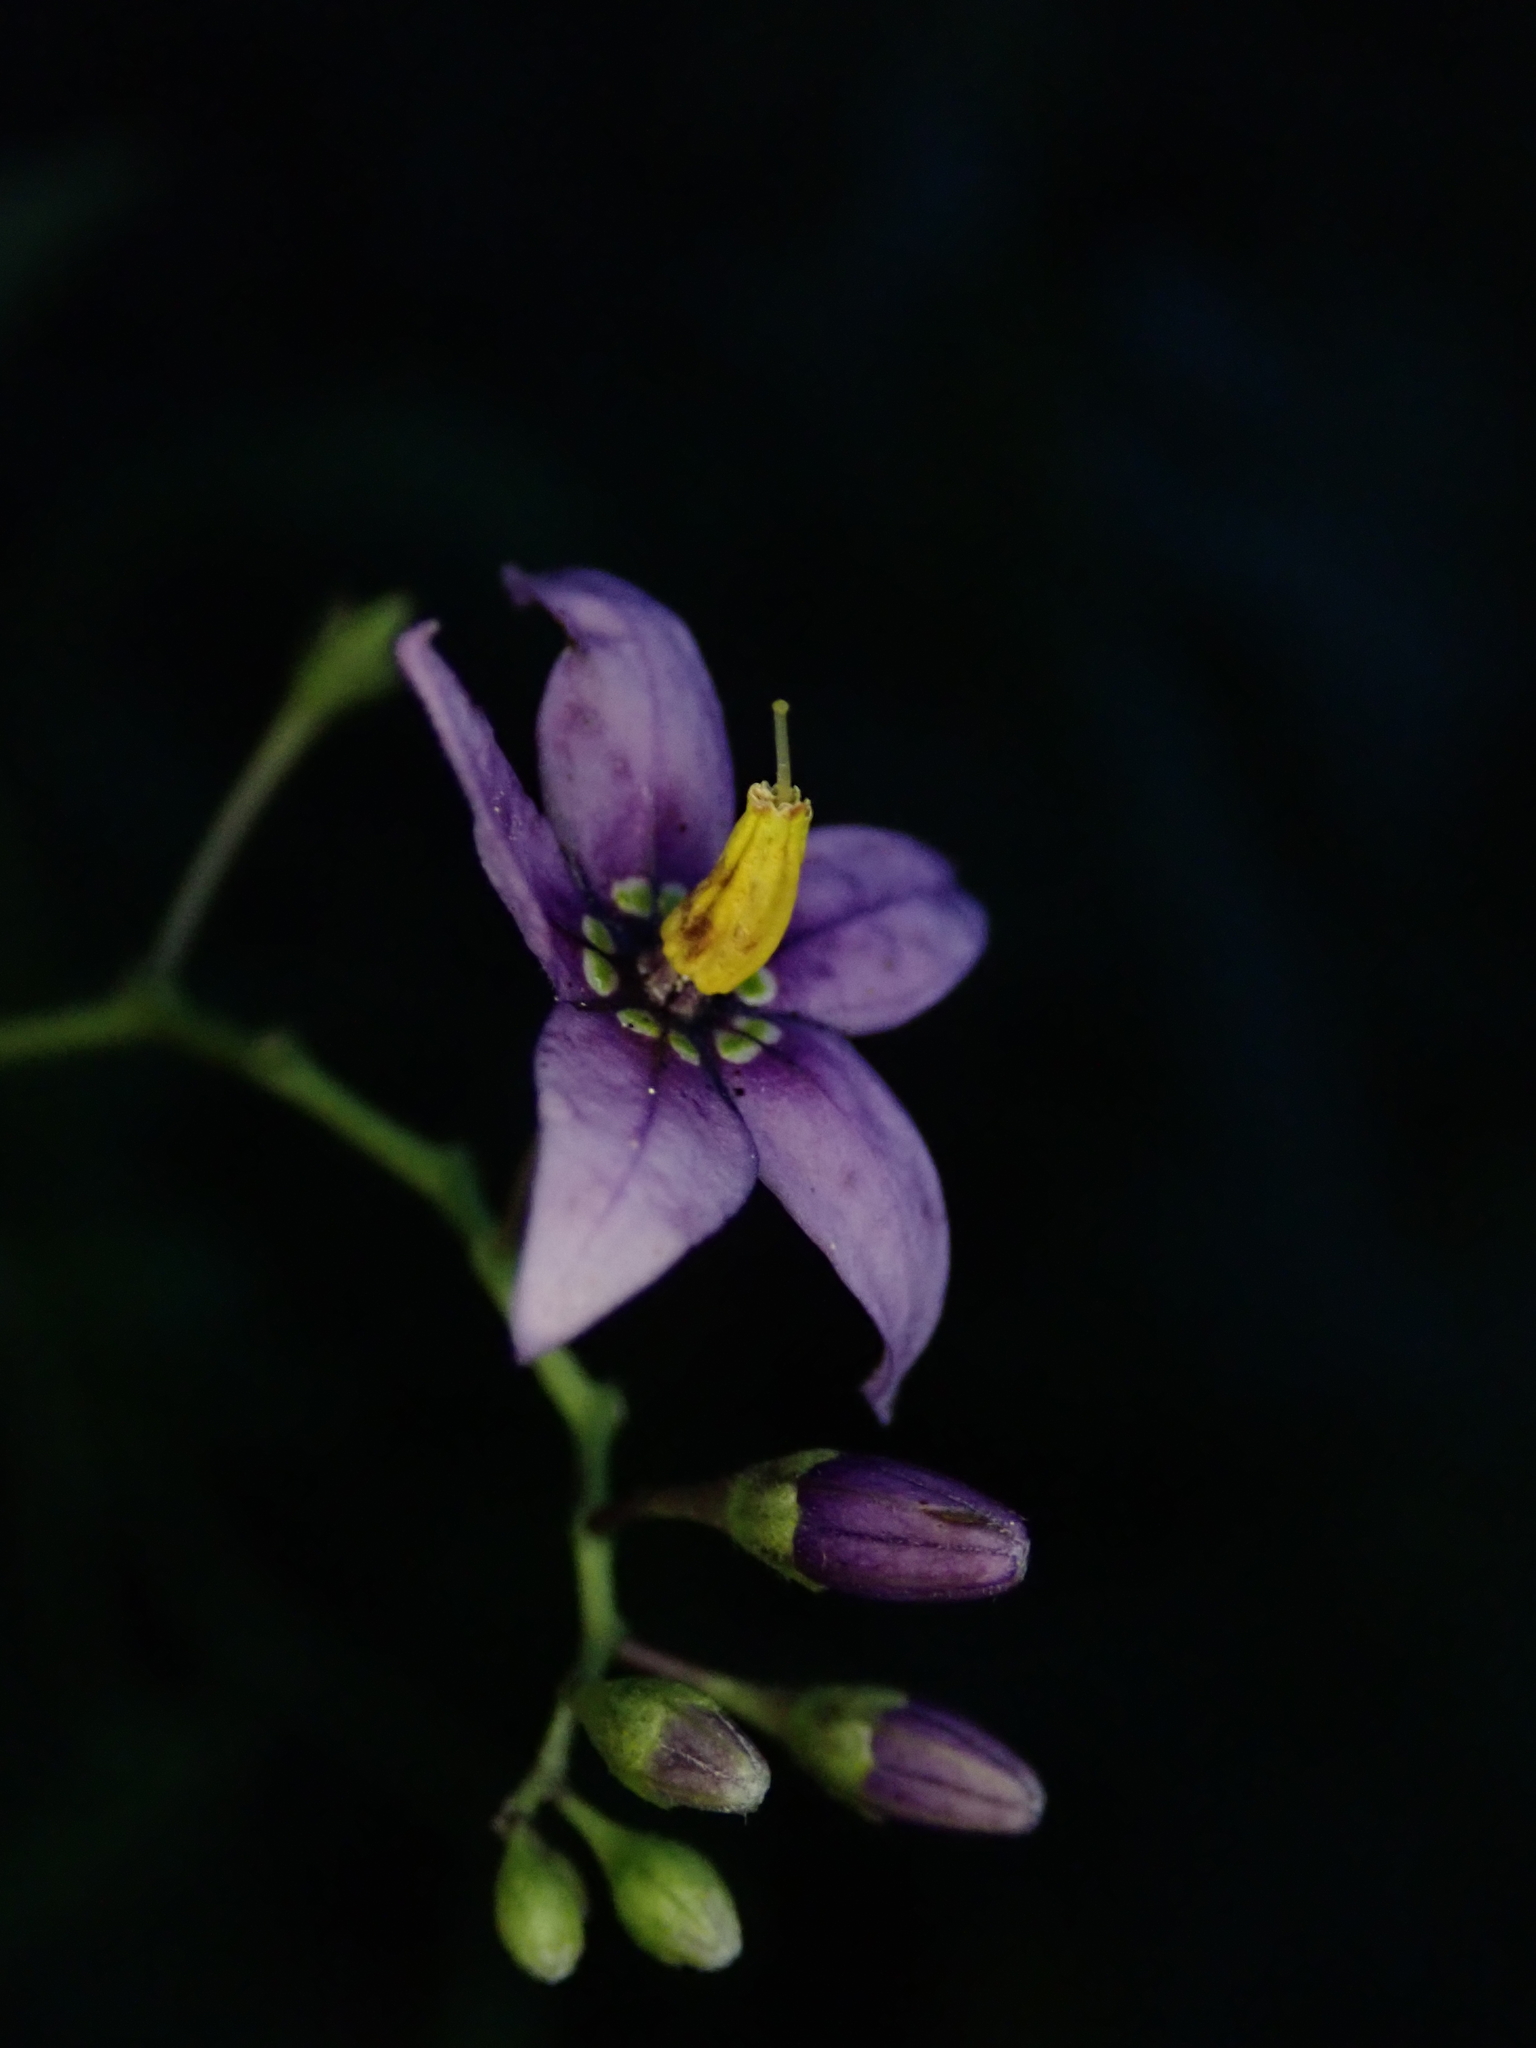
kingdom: Plantae
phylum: Tracheophyta
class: Magnoliopsida
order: Solanales
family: Solanaceae
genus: Solanum
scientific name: Solanum dulcamara
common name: Climbing nightshade
